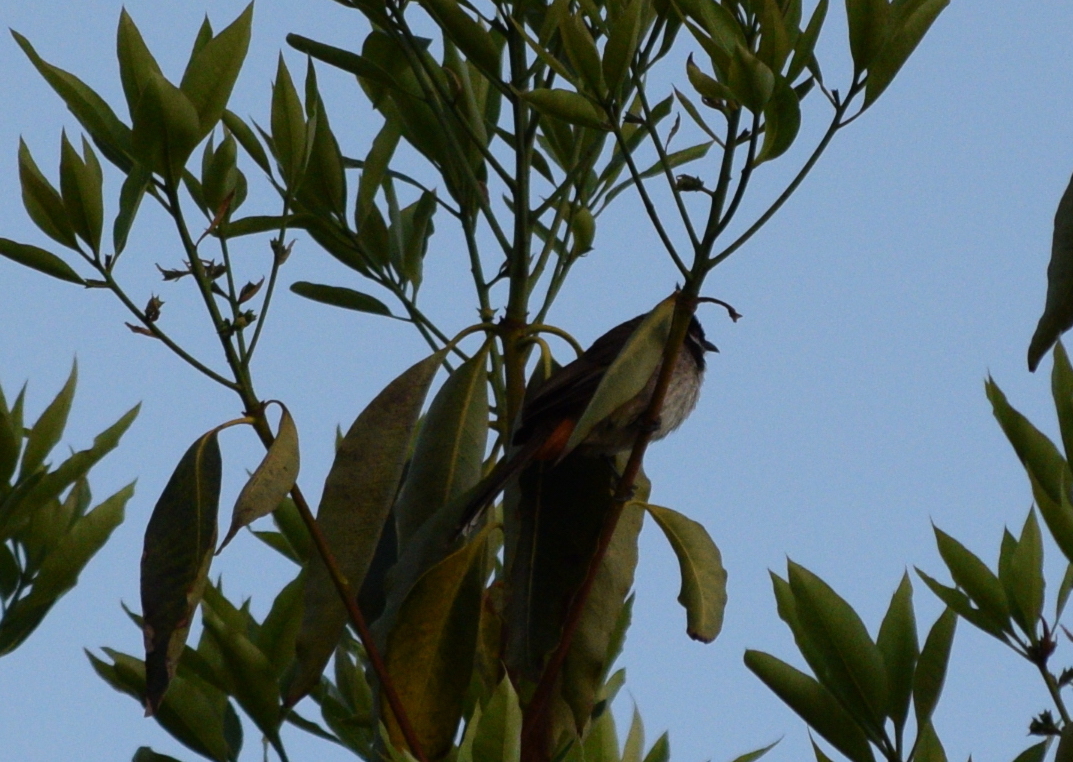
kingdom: Animalia
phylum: Chordata
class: Aves
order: Passeriformes
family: Pycnonotidae
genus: Pycnonotus
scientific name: Pycnonotus jocosus
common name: Red-whiskered bulbul
